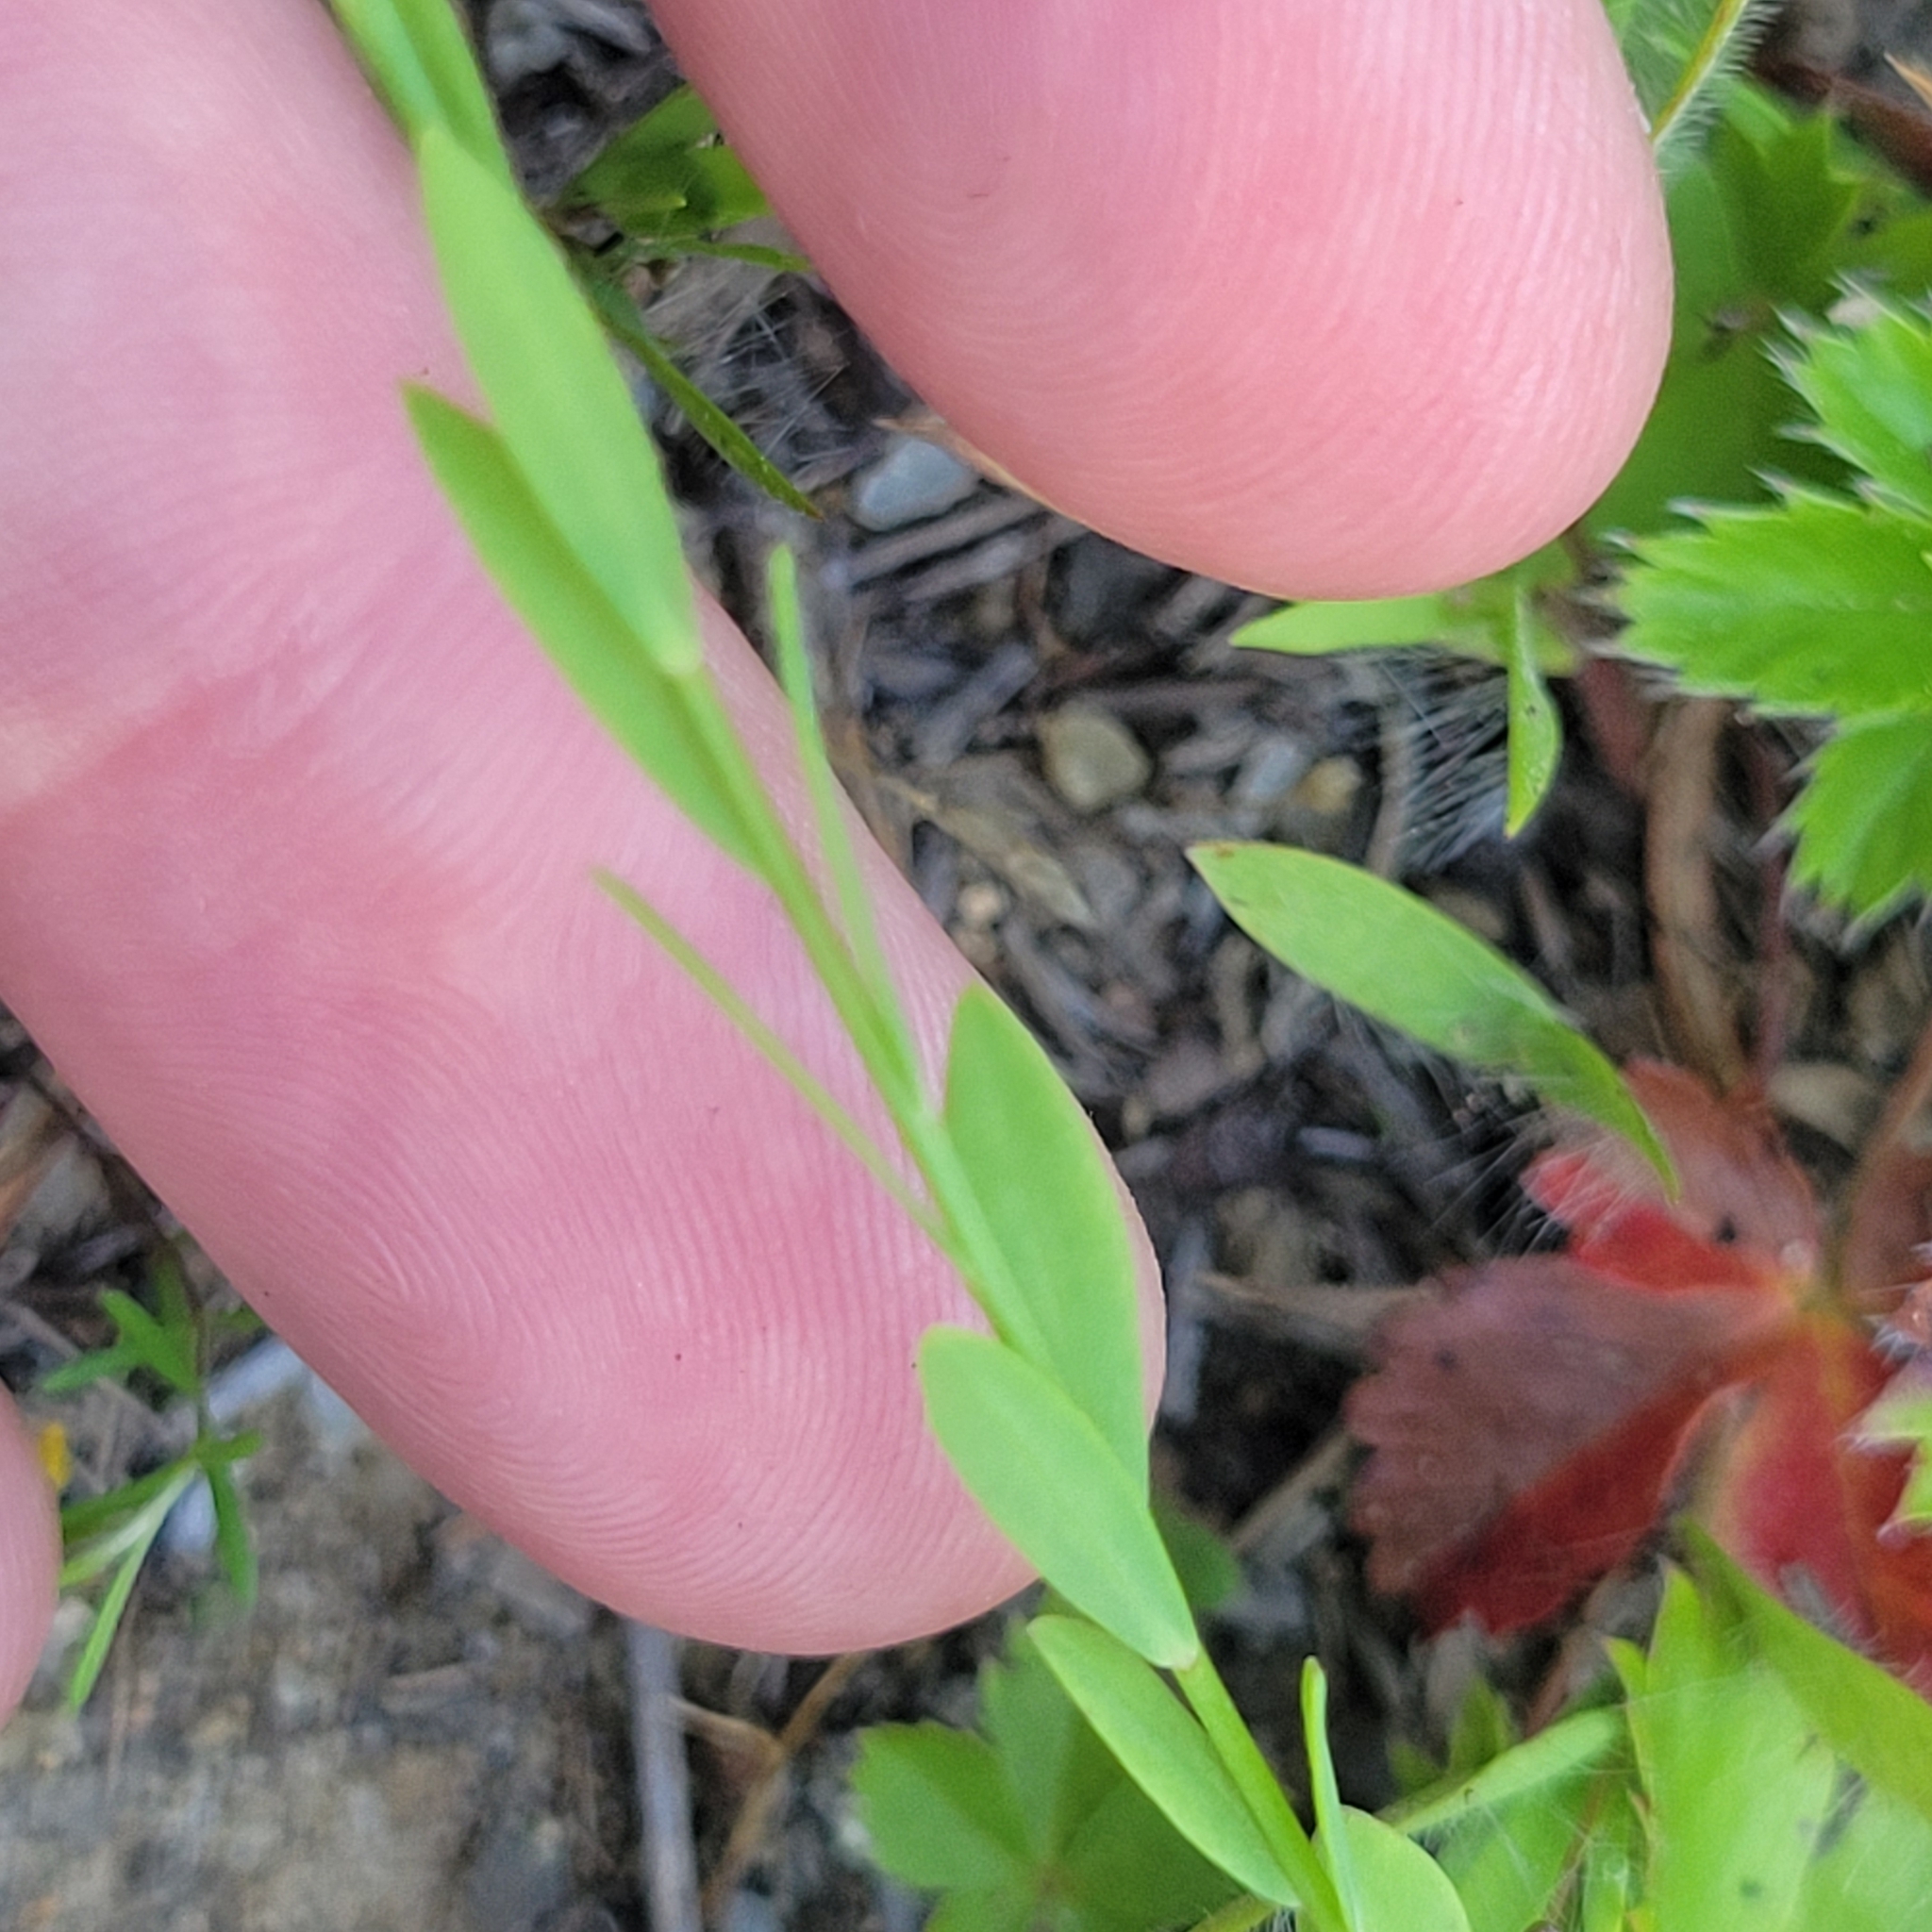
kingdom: Plantae
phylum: Tracheophyta
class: Magnoliopsida
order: Malpighiales
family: Linaceae
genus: Linum
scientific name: Linum intercursum
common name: Sandplain flax
